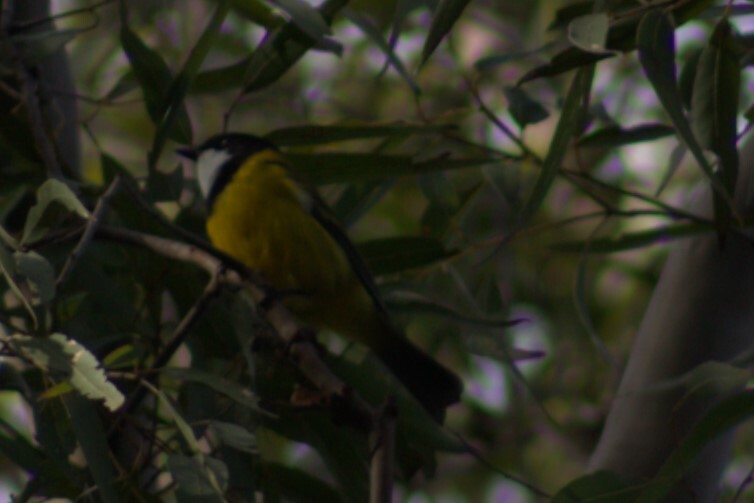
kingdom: Animalia
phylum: Chordata
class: Aves
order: Passeriformes
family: Pachycephalidae
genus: Pachycephala
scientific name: Pachycephala pectoralis
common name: Australian golden whistler
